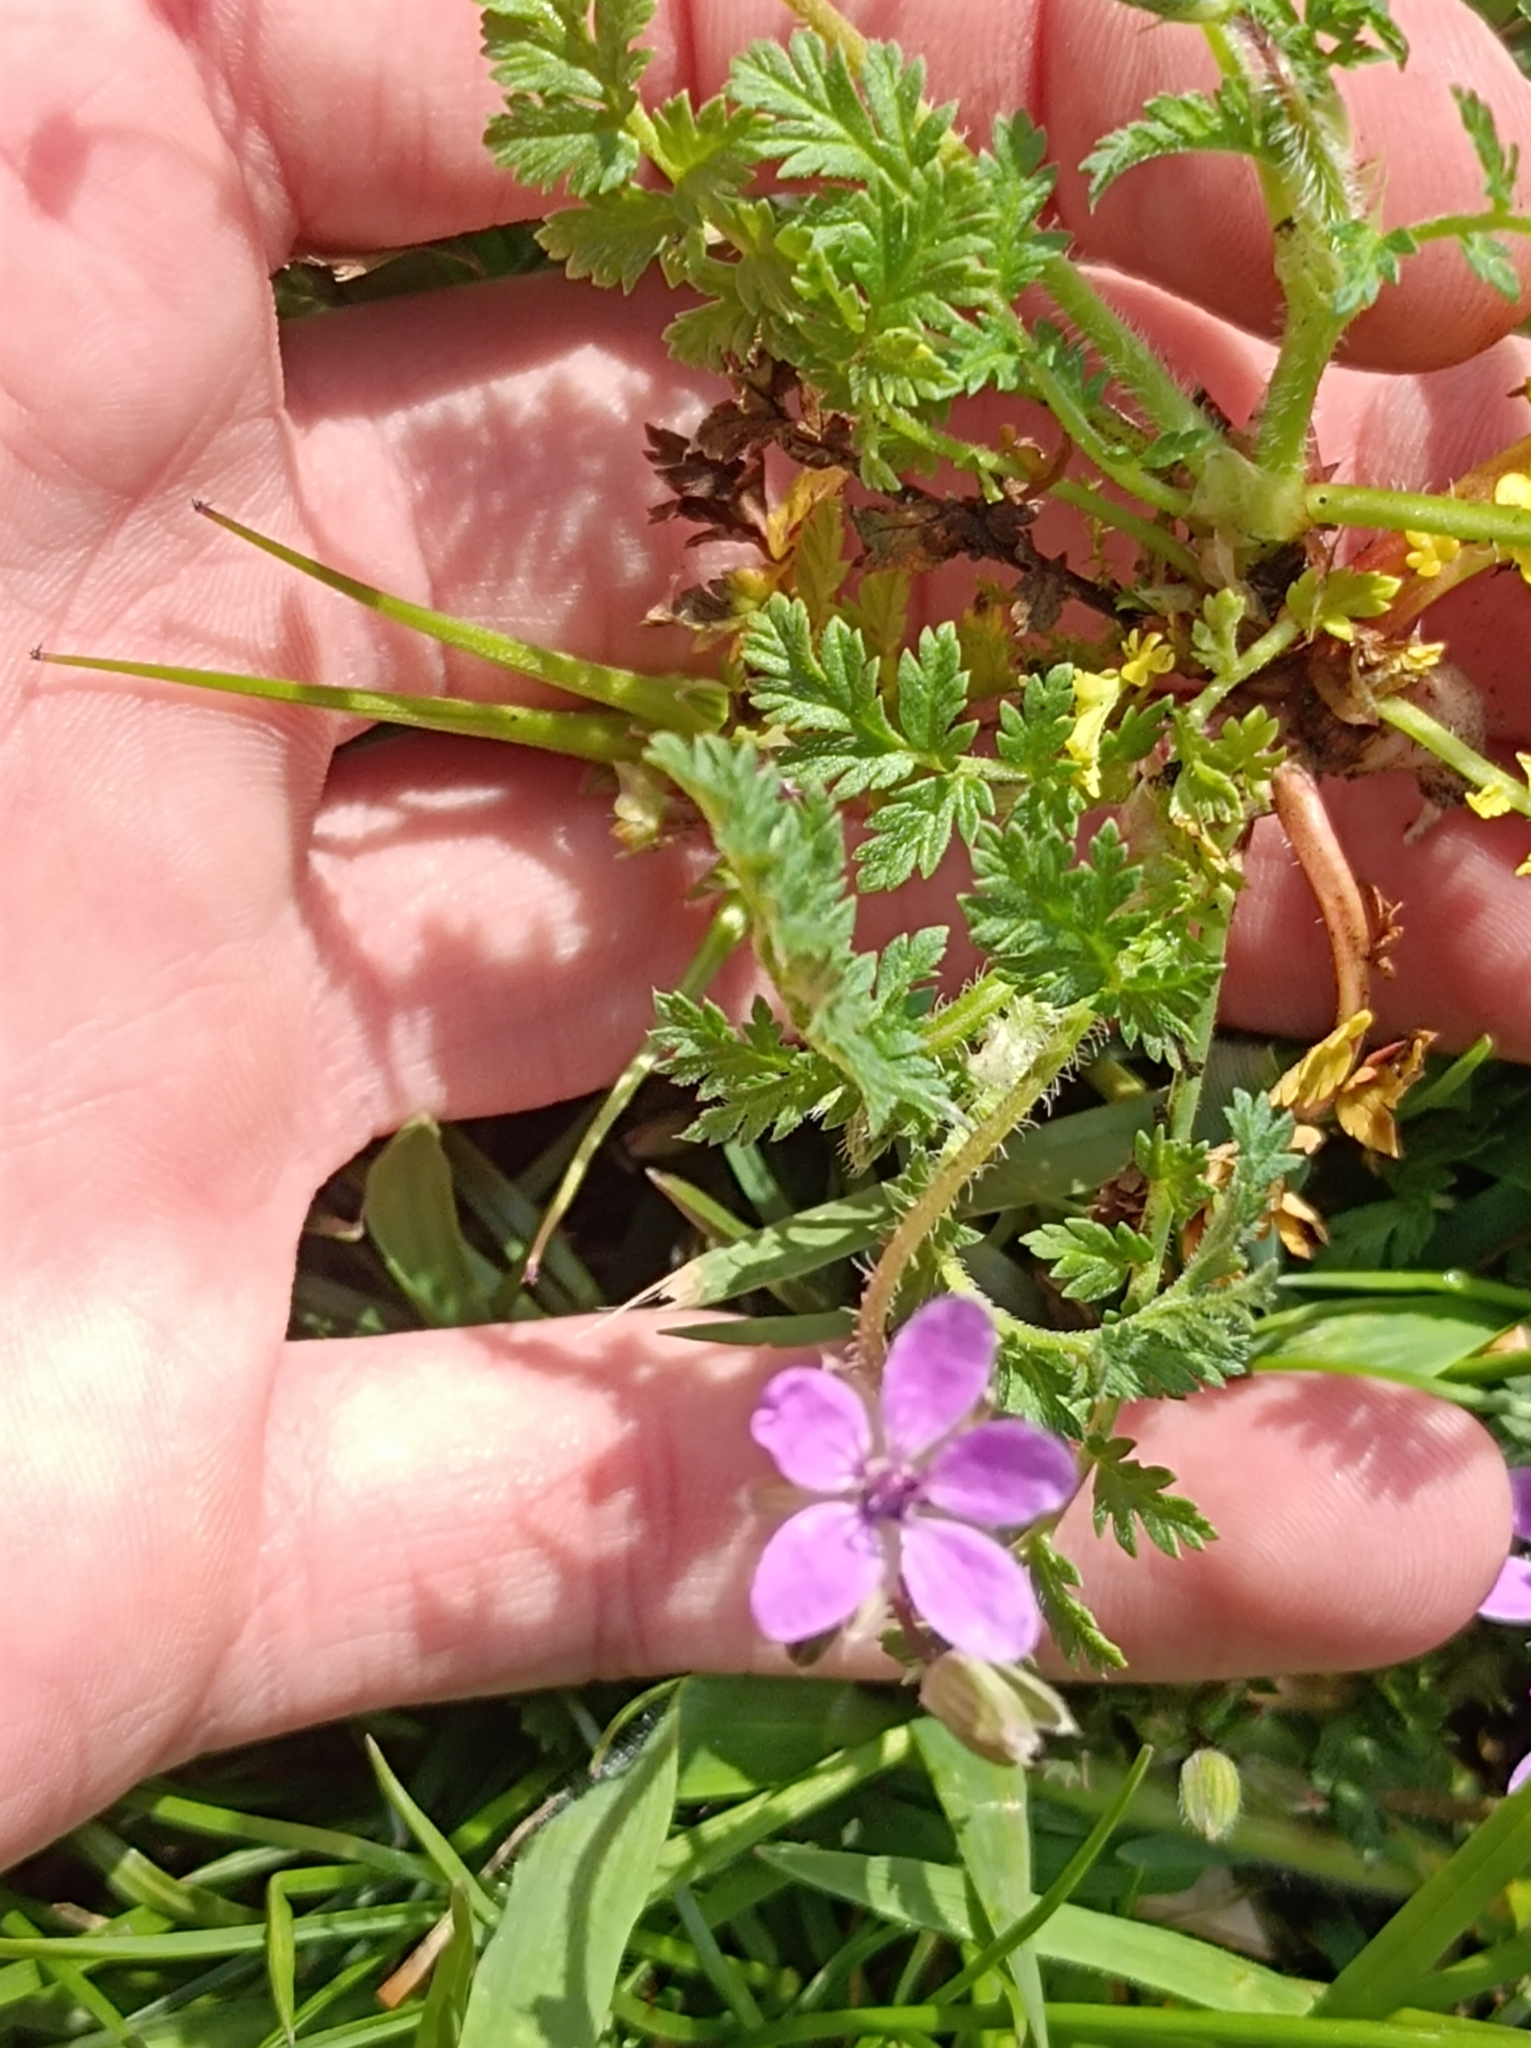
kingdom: Plantae
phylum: Tracheophyta
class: Magnoliopsida
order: Geraniales
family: Geraniaceae
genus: Erodium
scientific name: Erodium cicutarium
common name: Common stork's-bill
